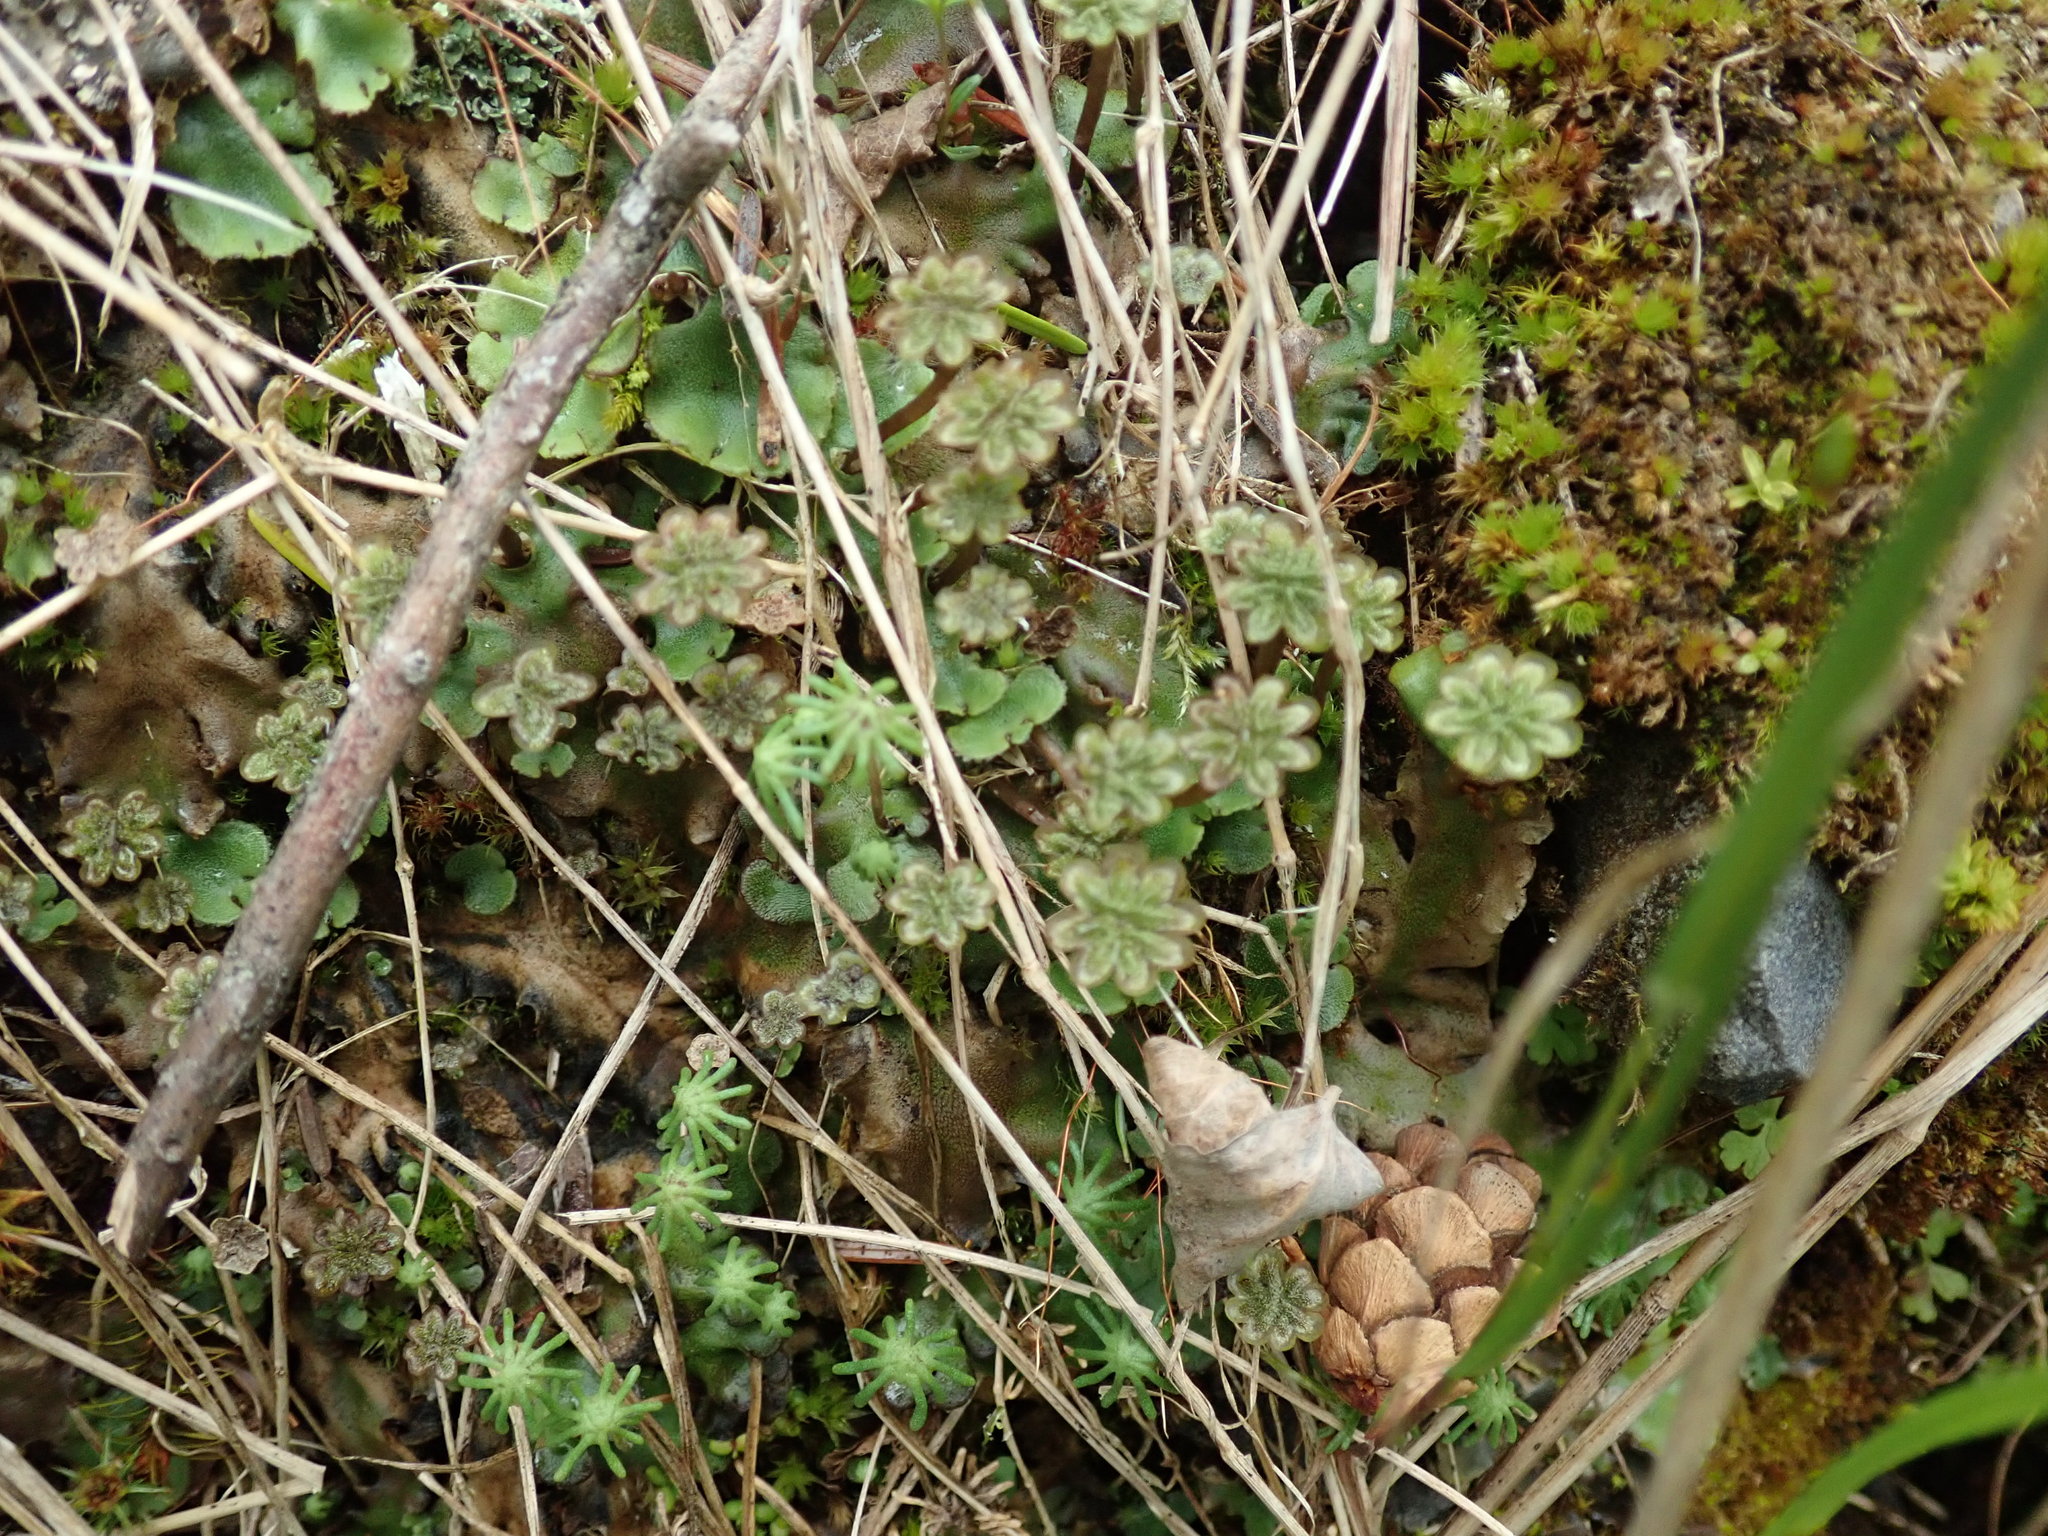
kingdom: Plantae
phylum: Marchantiophyta
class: Marchantiopsida
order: Marchantiales
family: Marchantiaceae
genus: Marchantia
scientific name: Marchantia polymorpha
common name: Common liverwort
